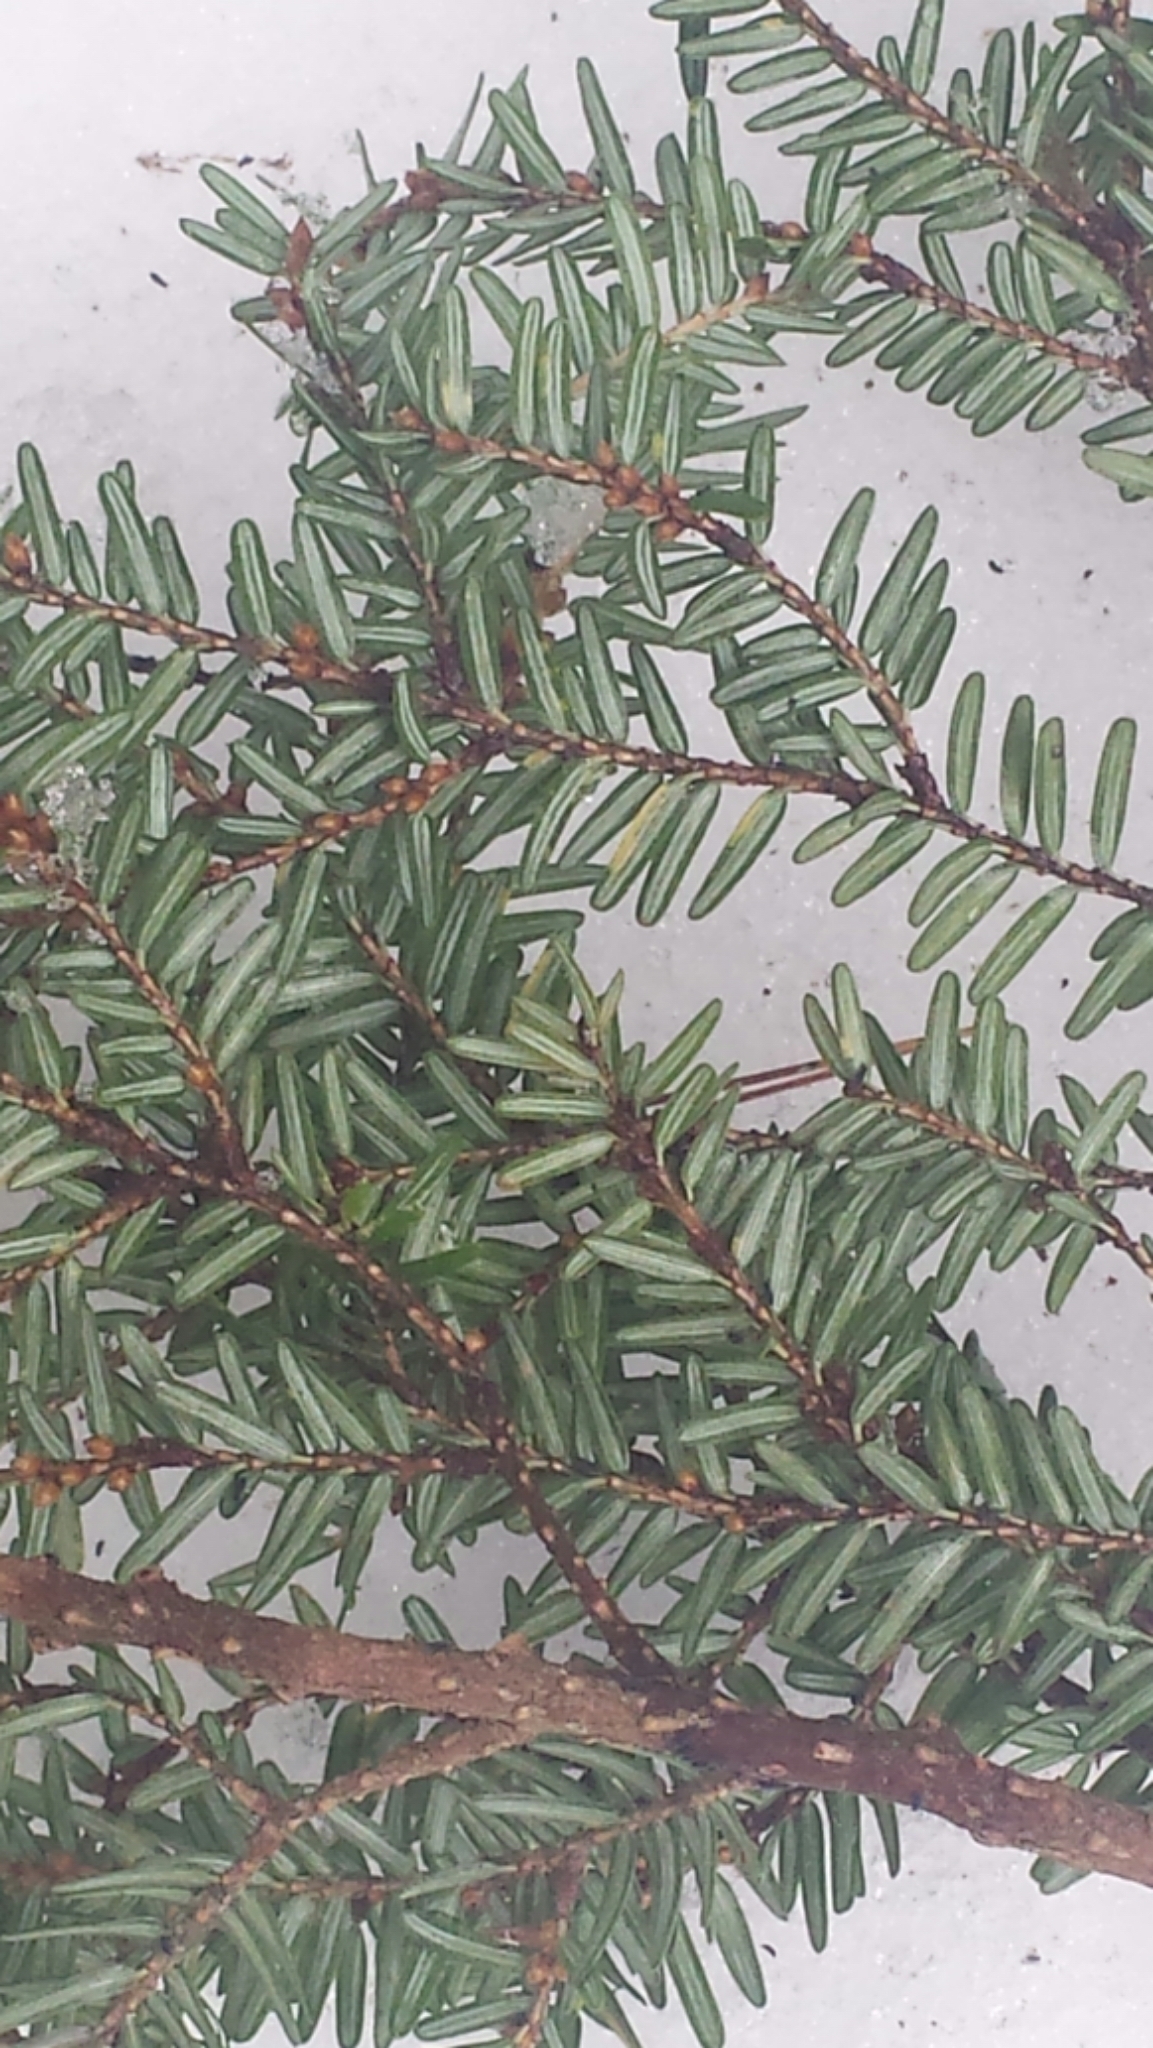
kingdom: Plantae
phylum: Tracheophyta
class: Pinopsida
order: Pinales
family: Pinaceae
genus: Tsuga
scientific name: Tsuga canadensis
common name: Eastern hemlock
